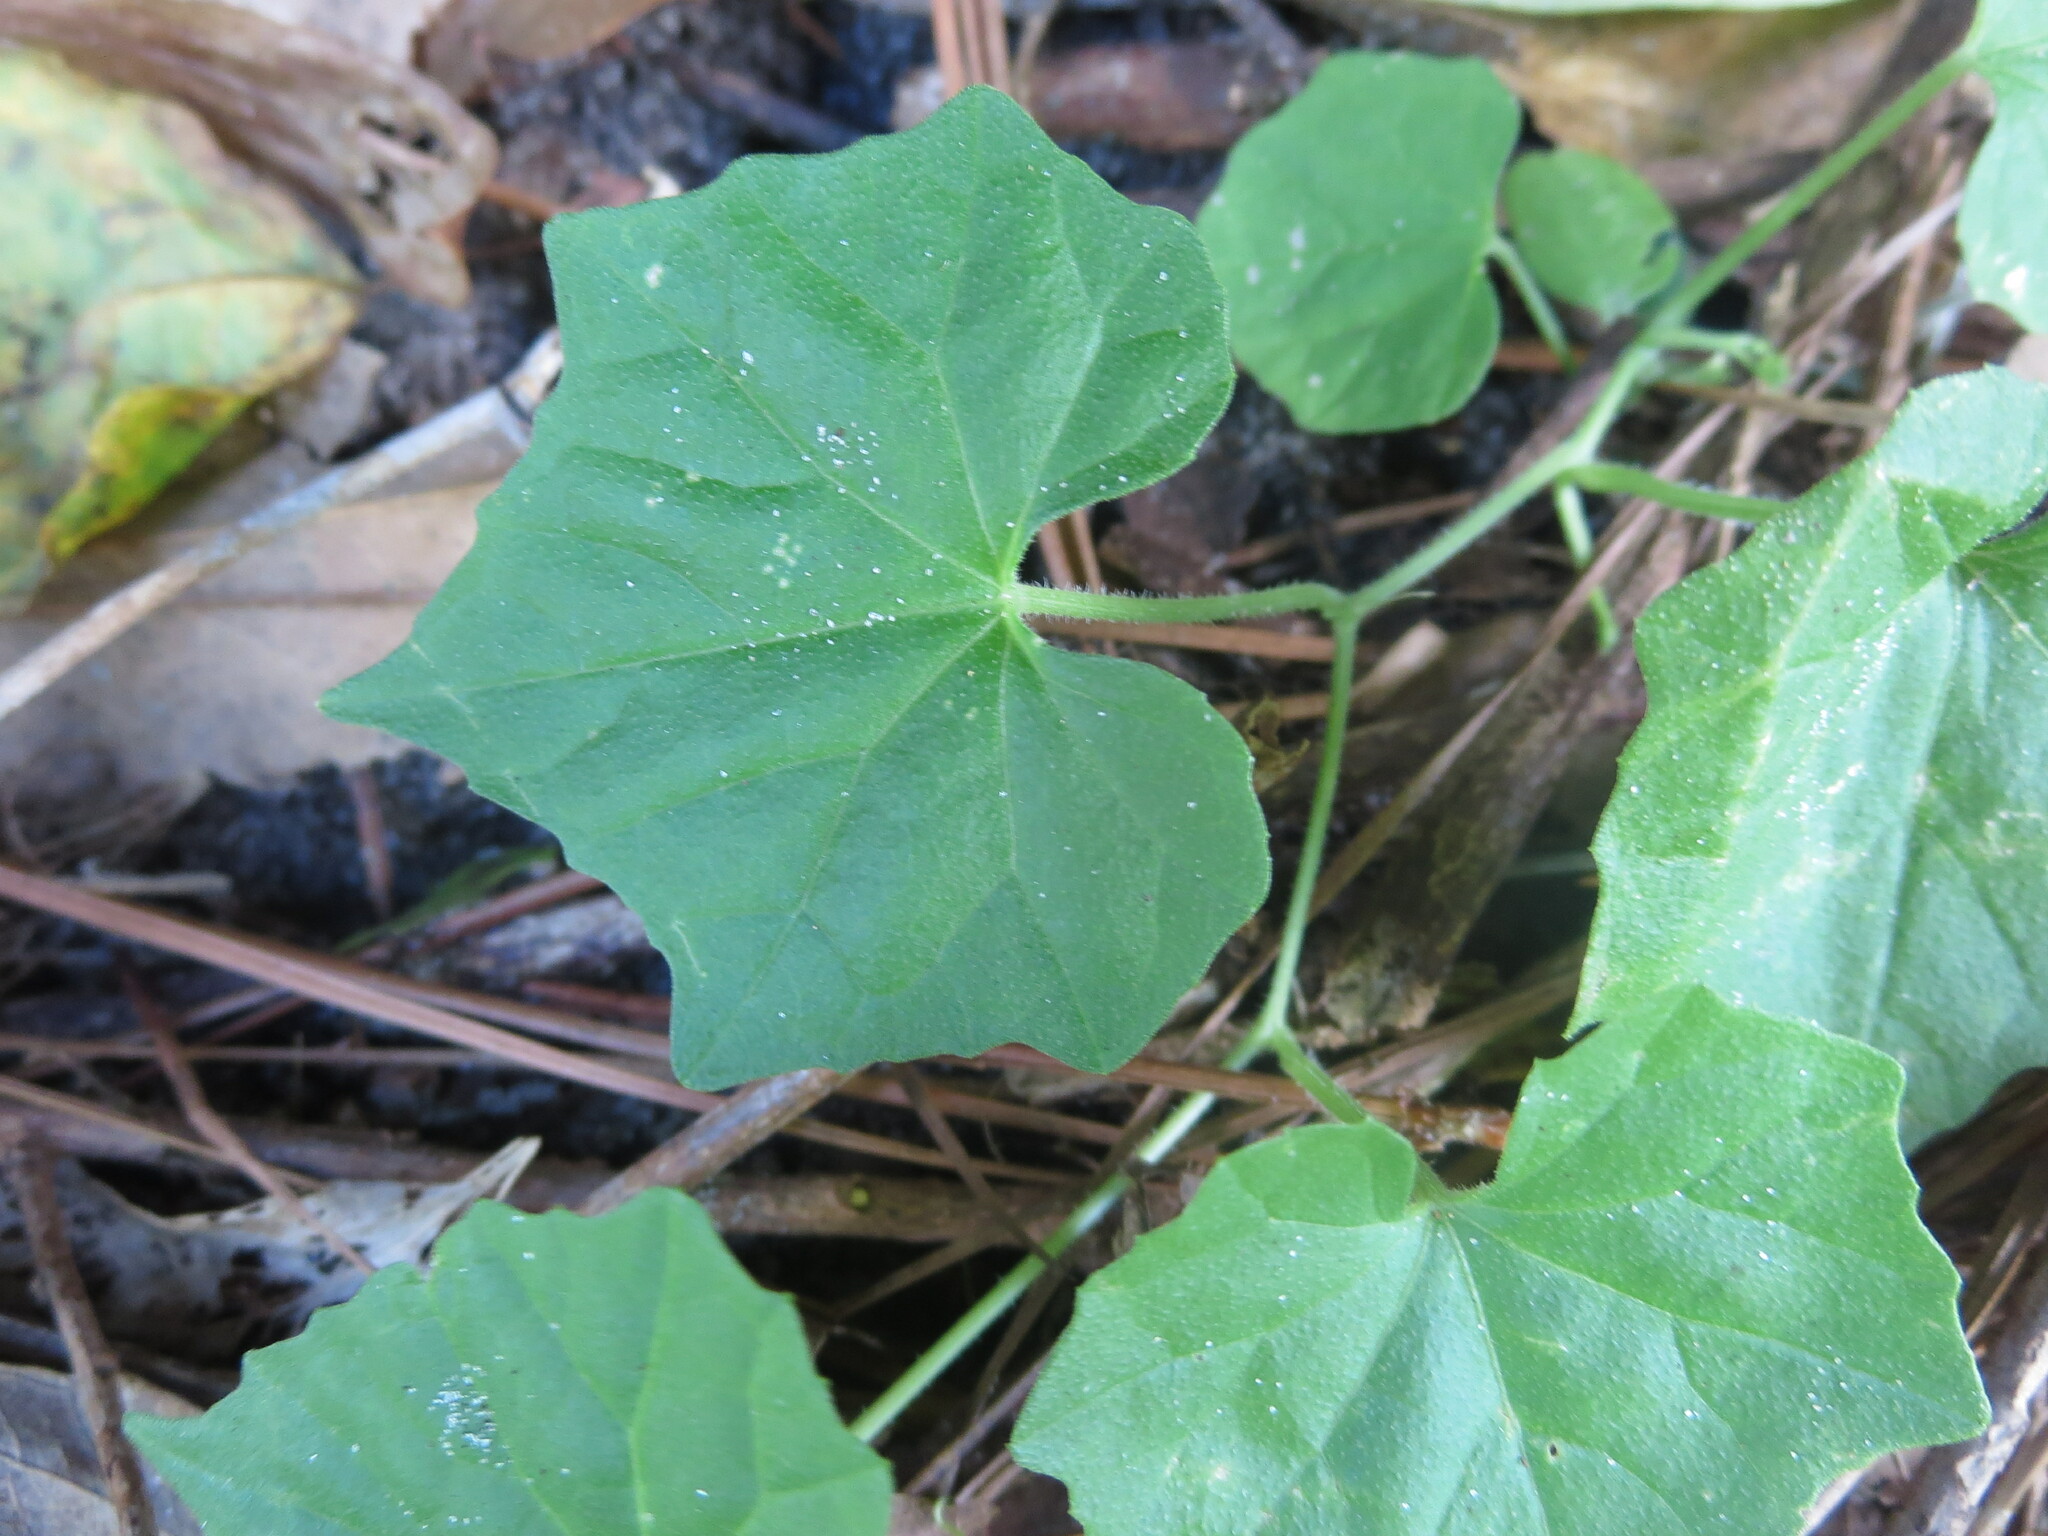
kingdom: Plantae
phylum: Tracheophyta
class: Magnoliopsida
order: Cucurbitales
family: Cucurbitaceae
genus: Melothria
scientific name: Melothria pendula
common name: Creeping-cucumber
